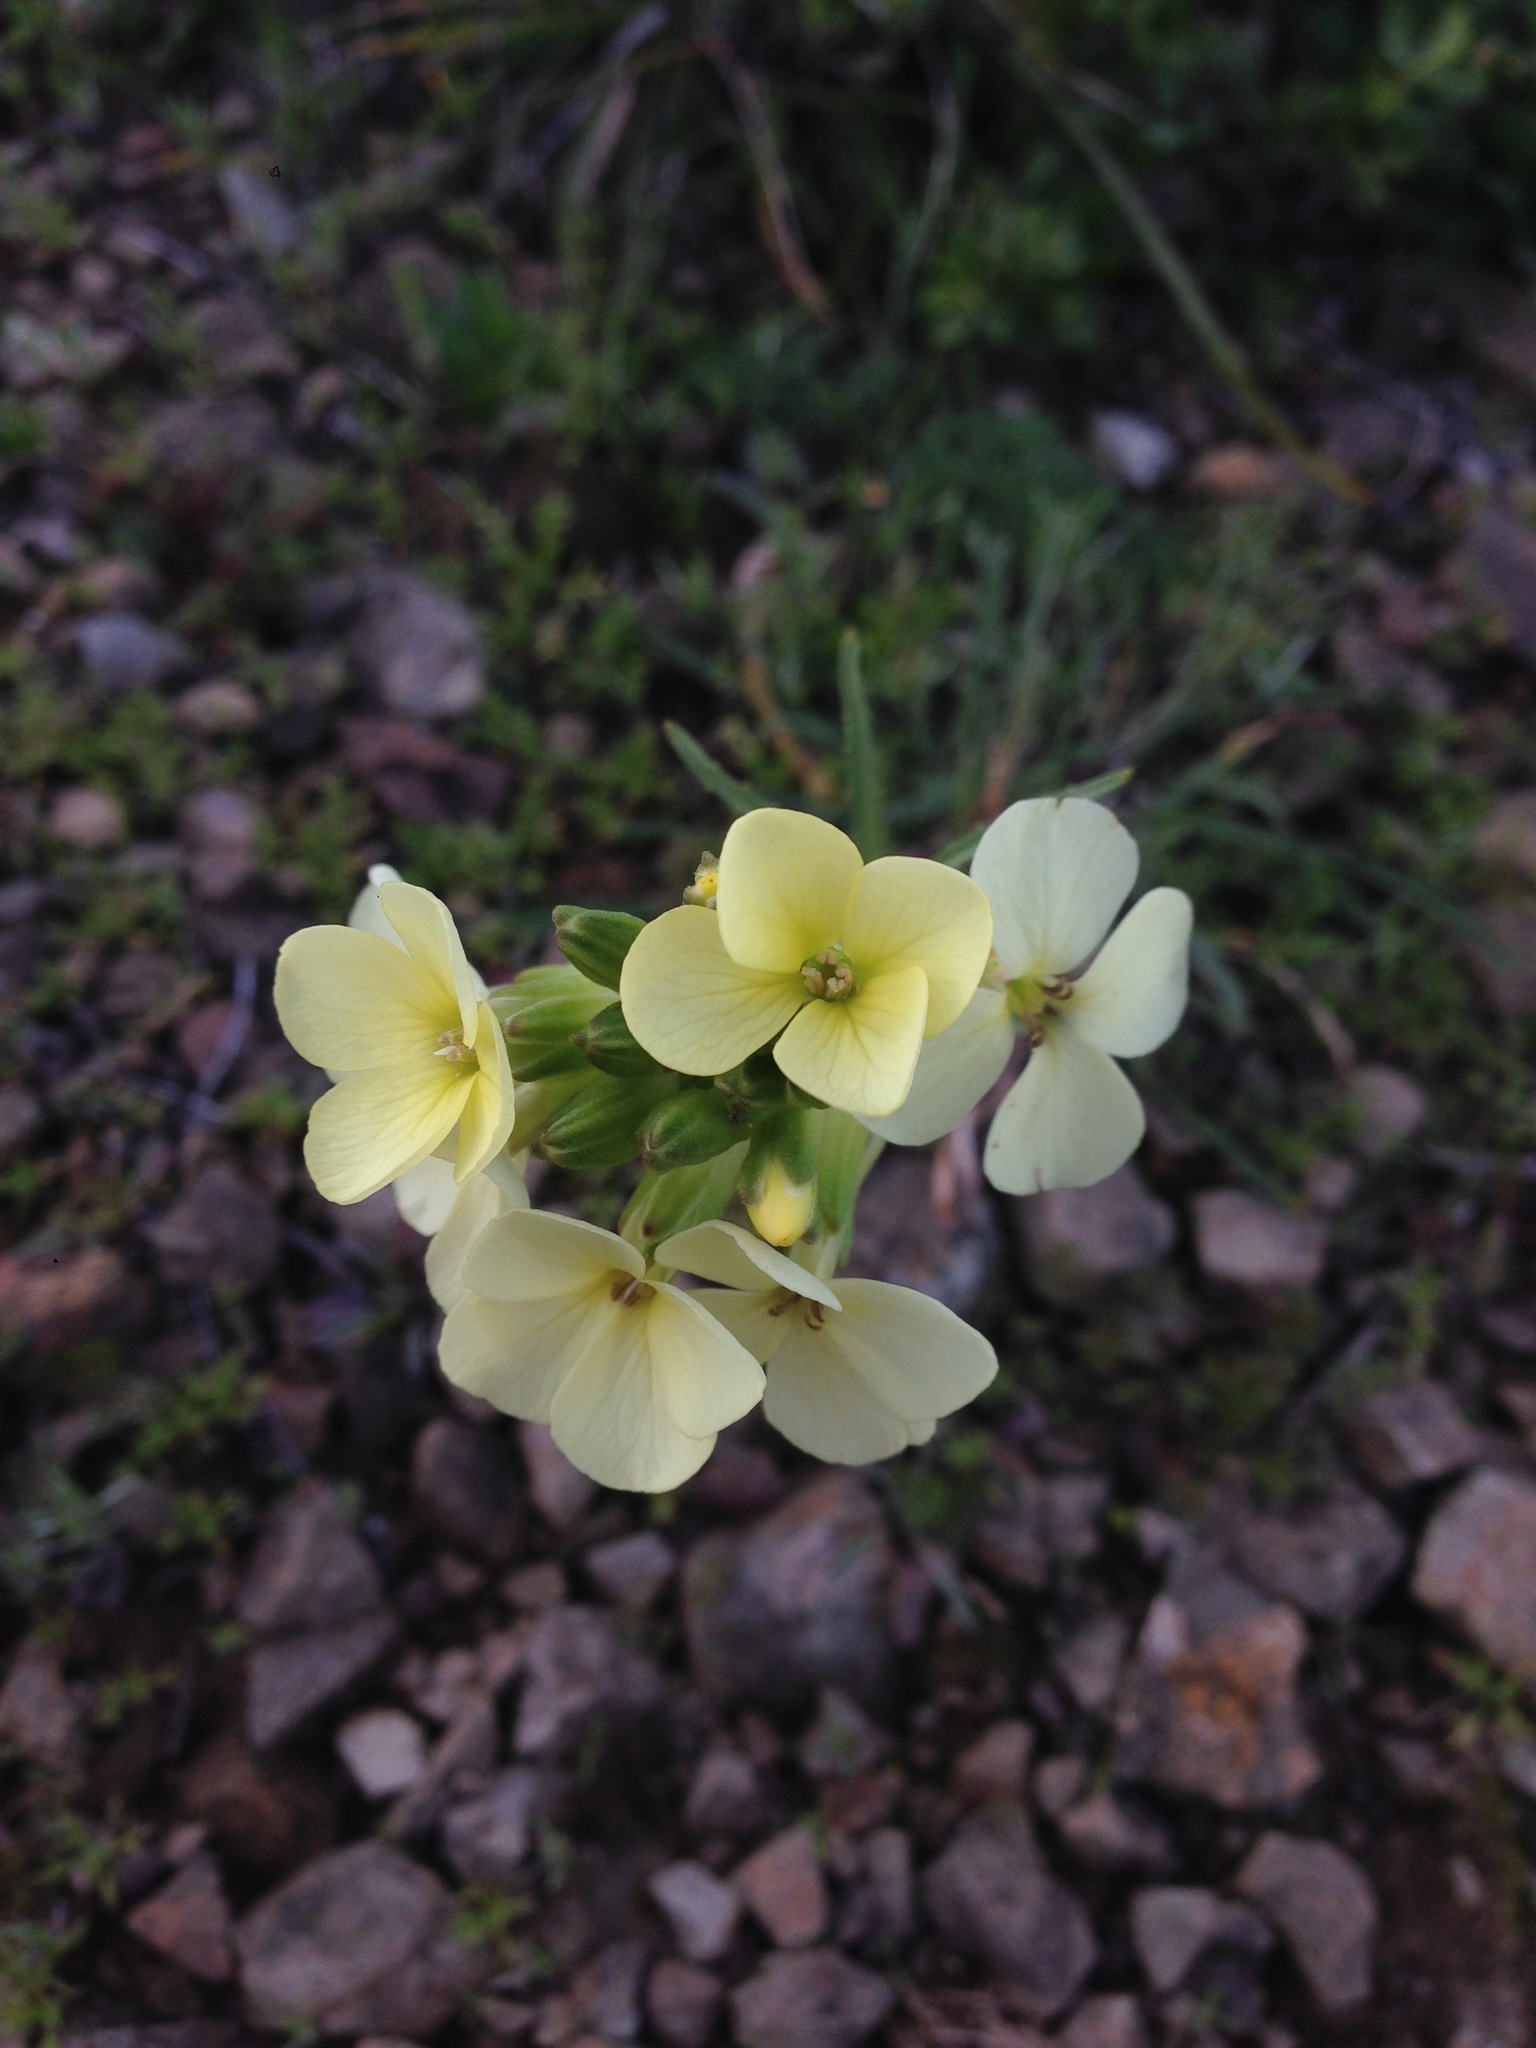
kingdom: Plantae
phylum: Tracheophyta
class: Magnoliopsida
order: Brassicales
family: Brassicaceae
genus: Erysimum
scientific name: Erysimum franciscanum
